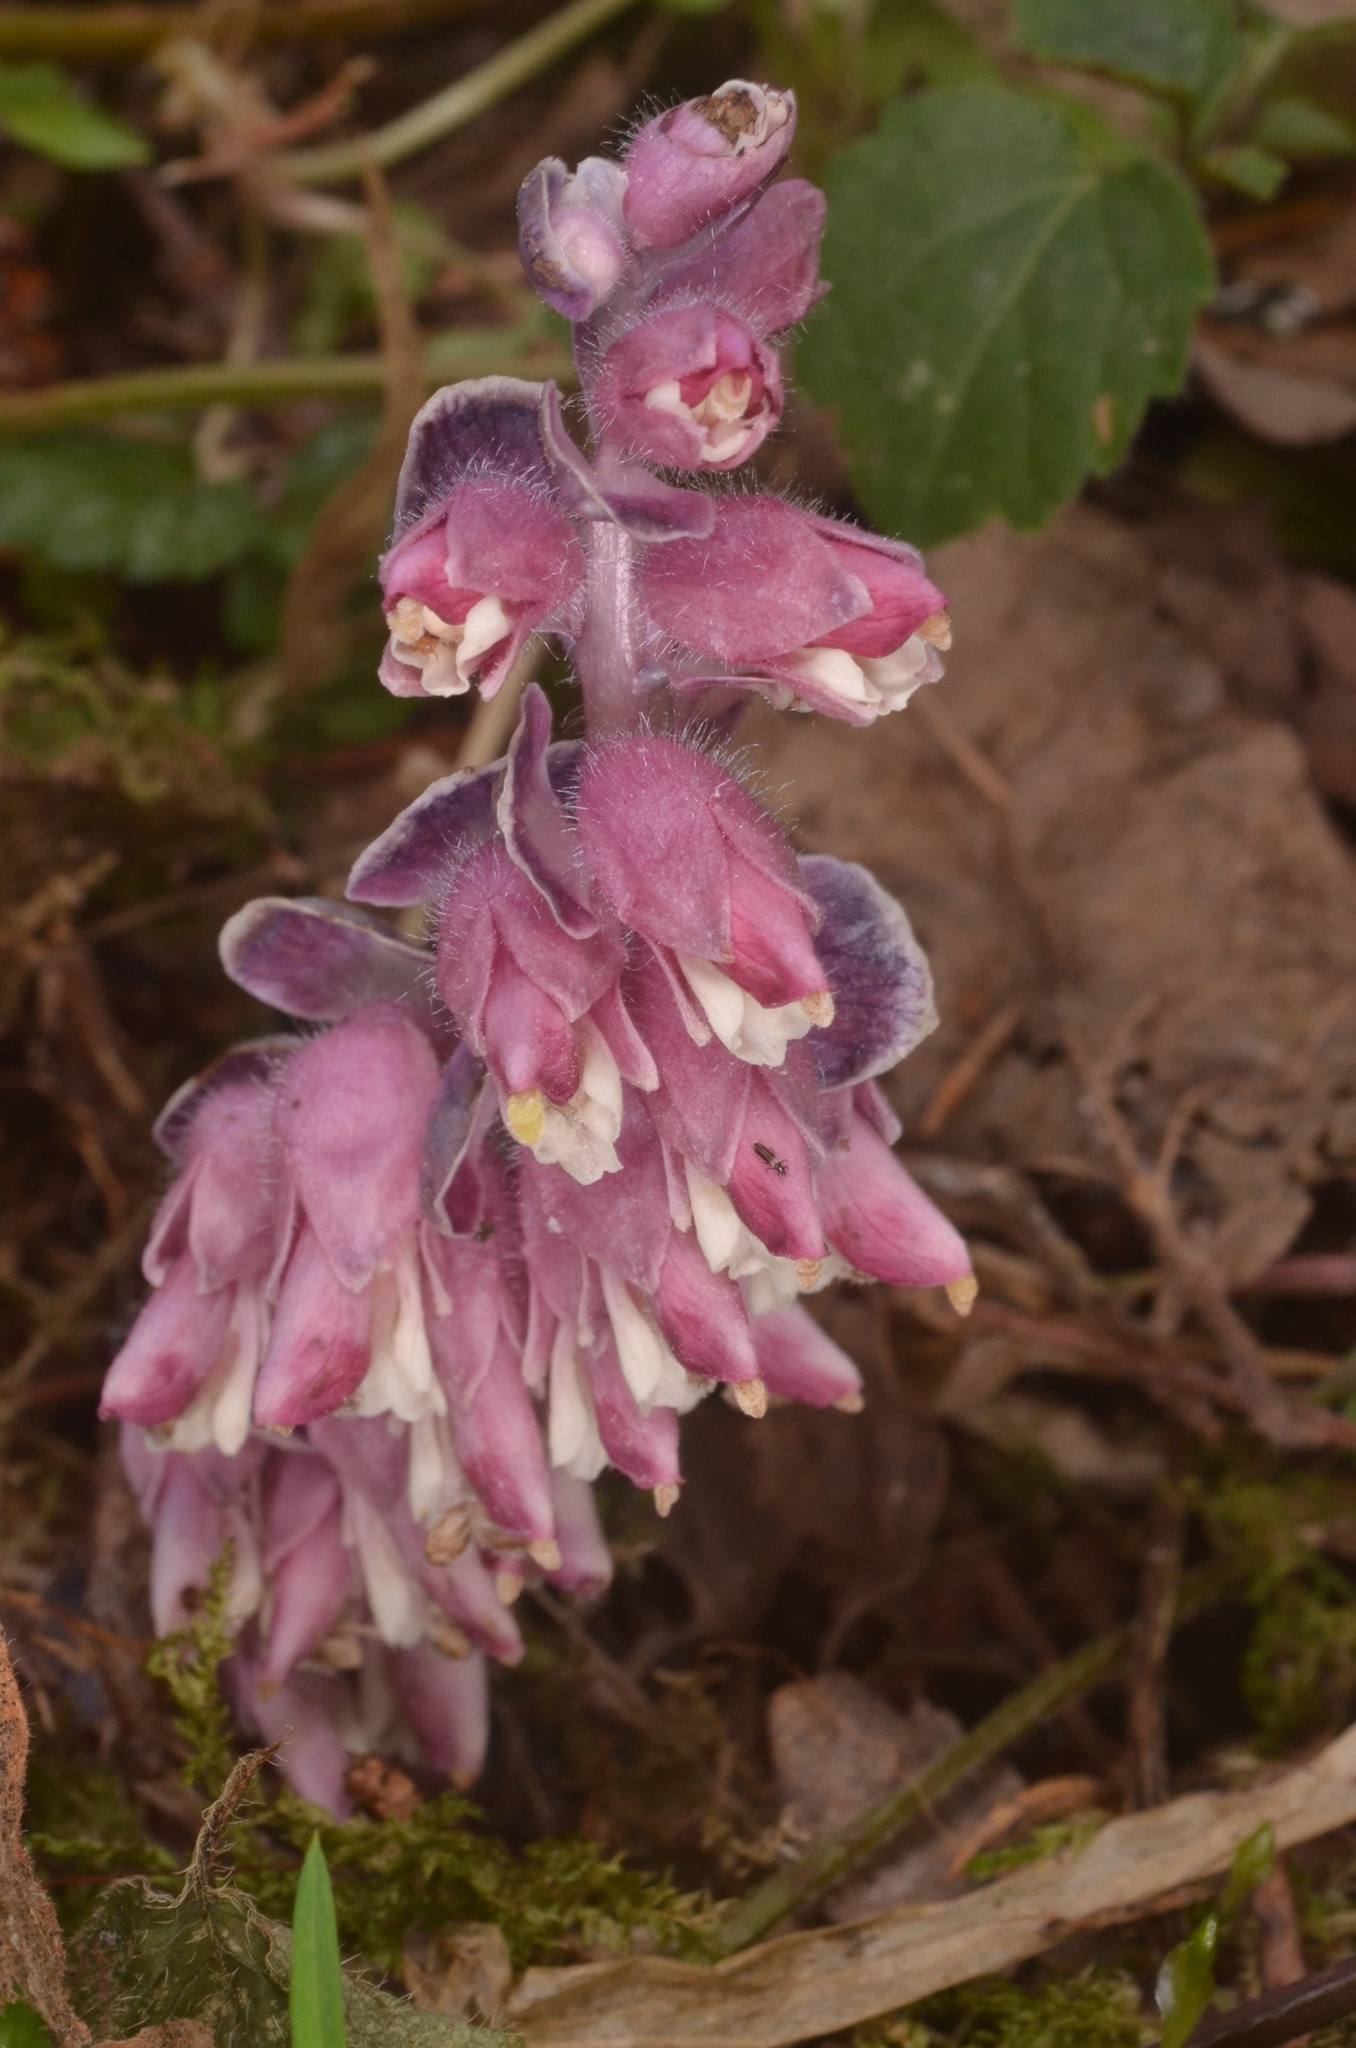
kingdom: Plantae
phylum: Tracheophyta
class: Magnoliopsida
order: Lamiales
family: Orobanchaceae
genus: Lathraea
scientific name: Lathraea squamaria
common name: Toothwort
